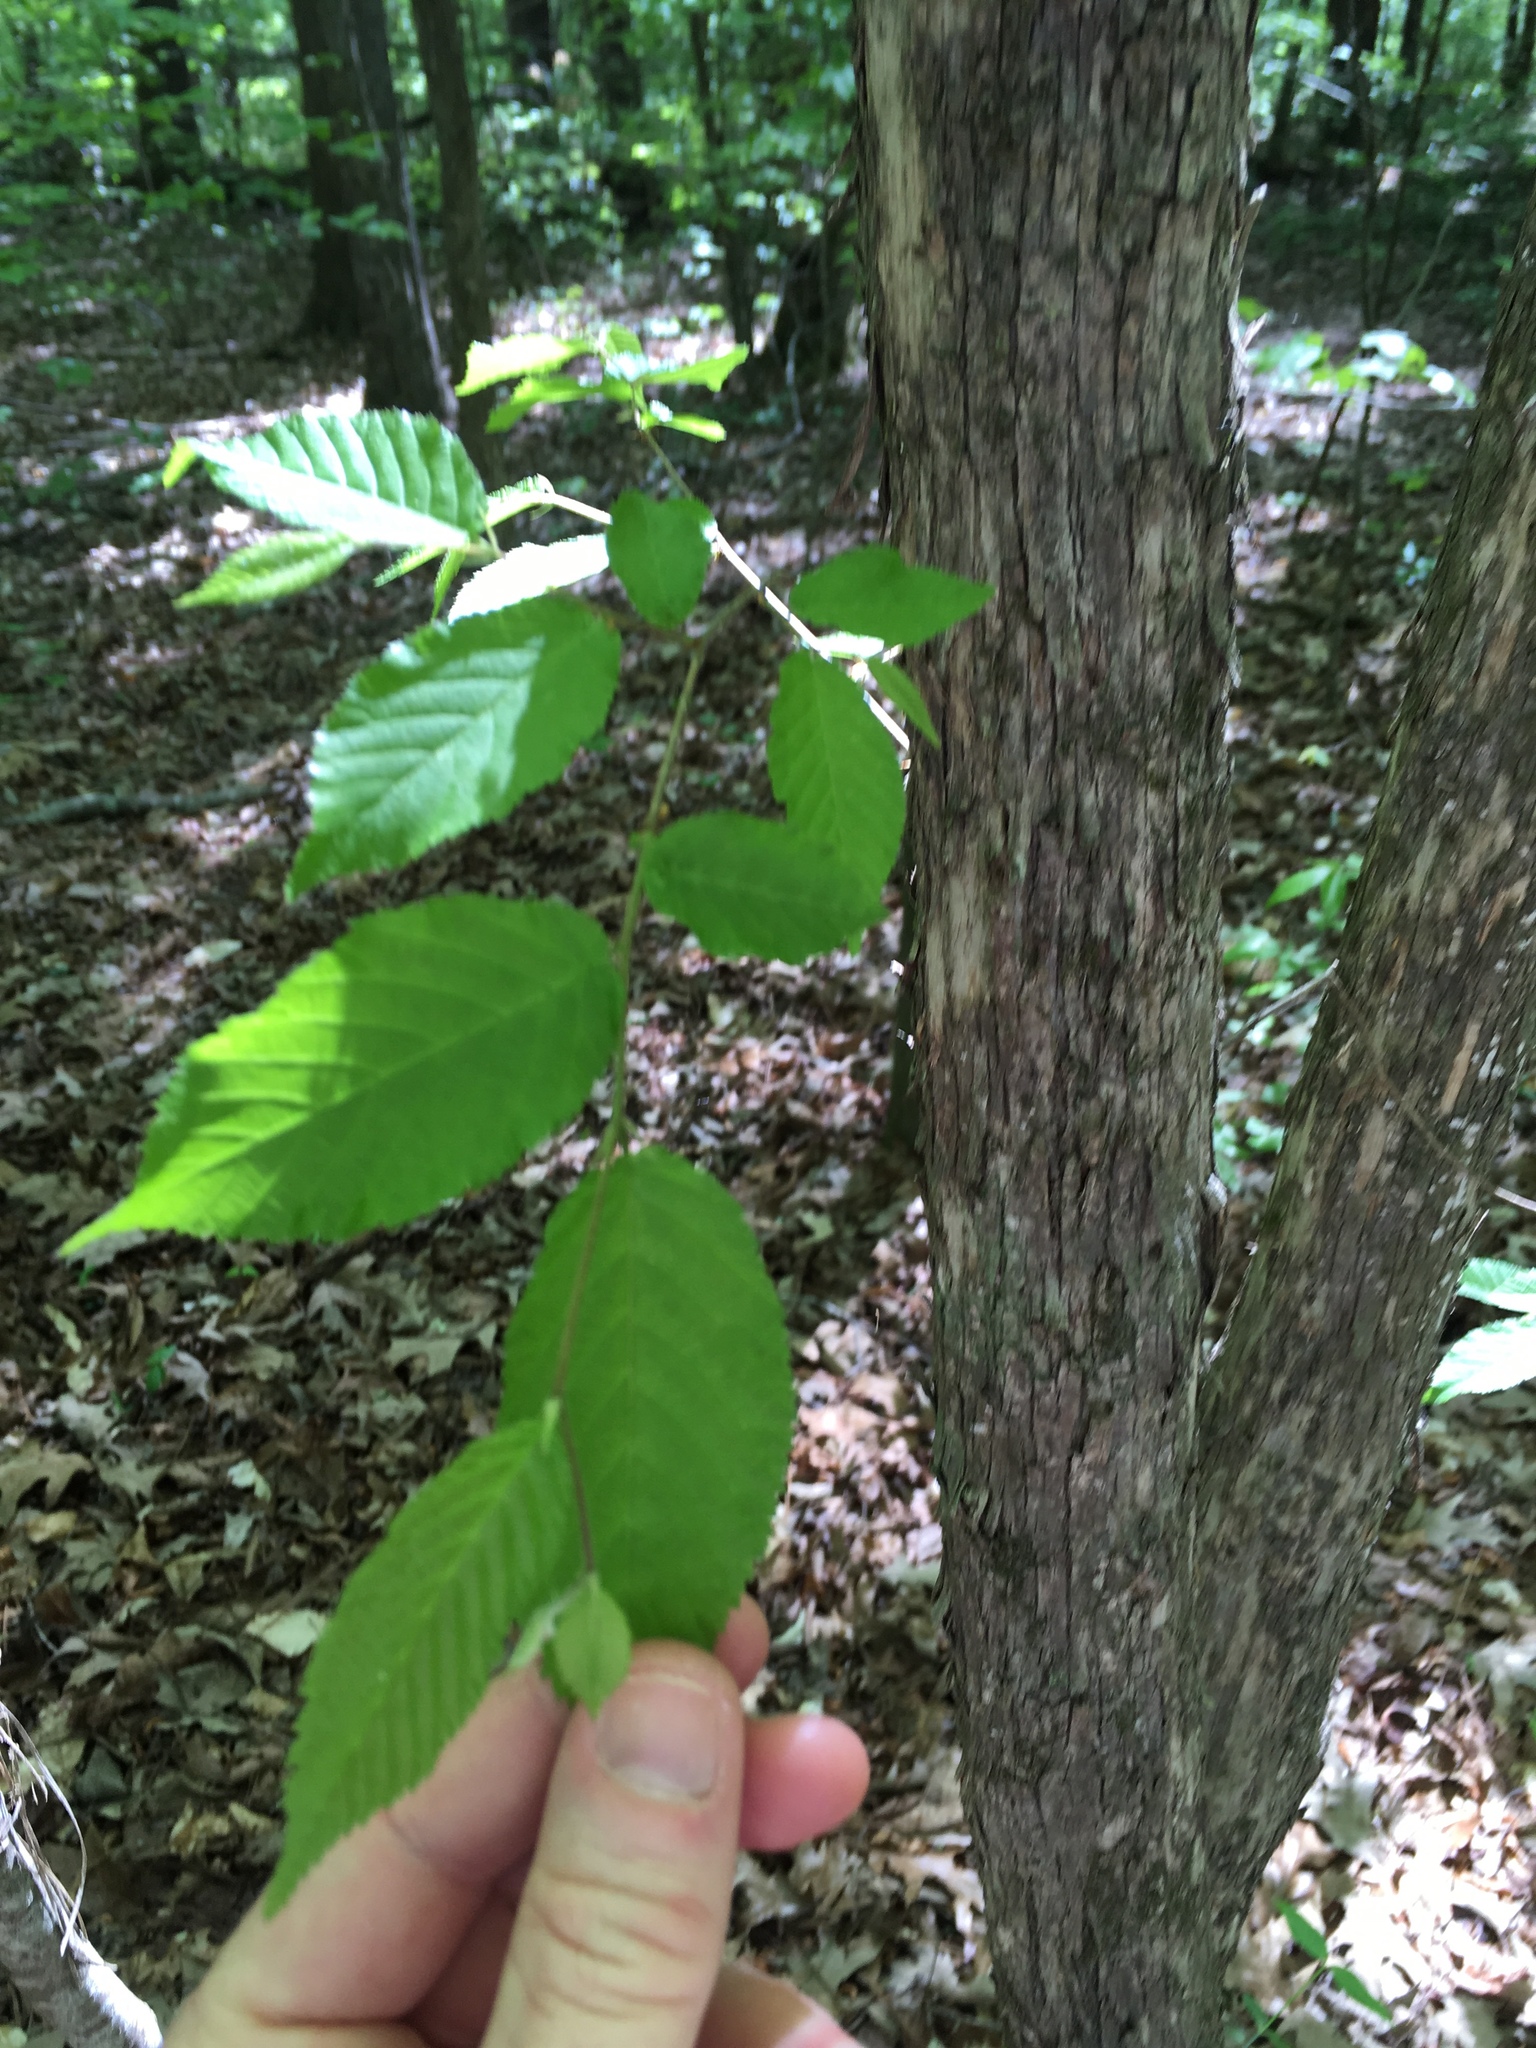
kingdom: Plantae
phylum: Tracheophyta
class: Magnoliopsida
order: Fagales
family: Betulaceae
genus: Ostrya
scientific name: Ostrya virginiana
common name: Ironwood
